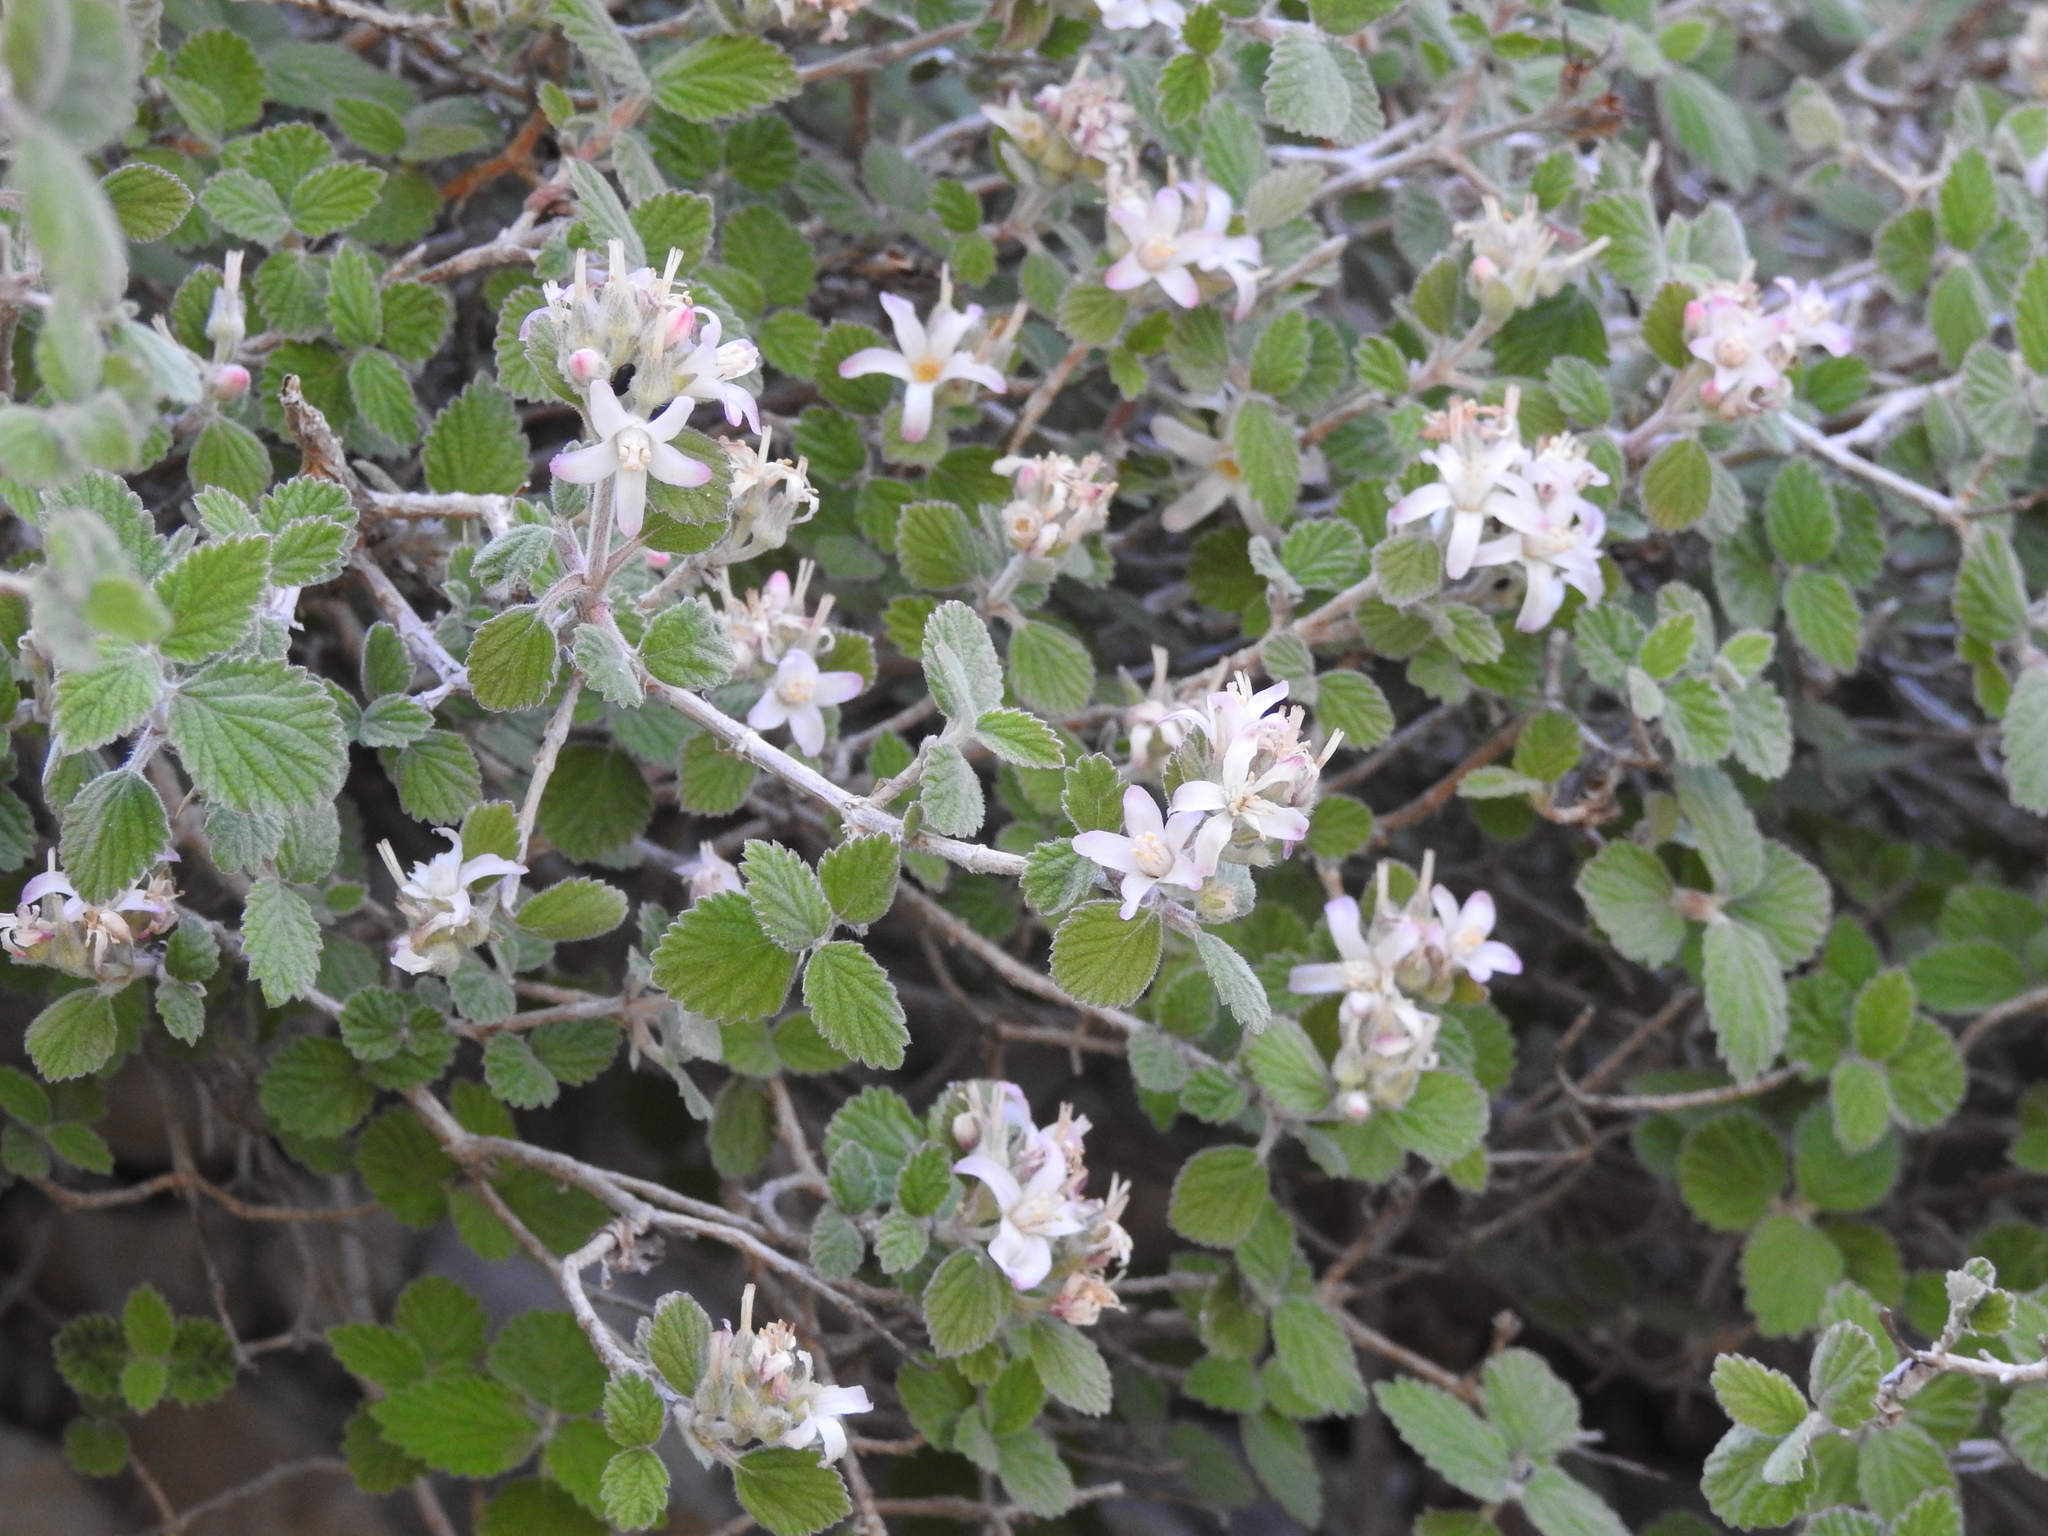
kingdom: Plantae
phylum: Tracheophyta
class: Magnoliopsida
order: Cornales
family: Hydrangeaceae
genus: Jamesia
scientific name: Jamesia americana
